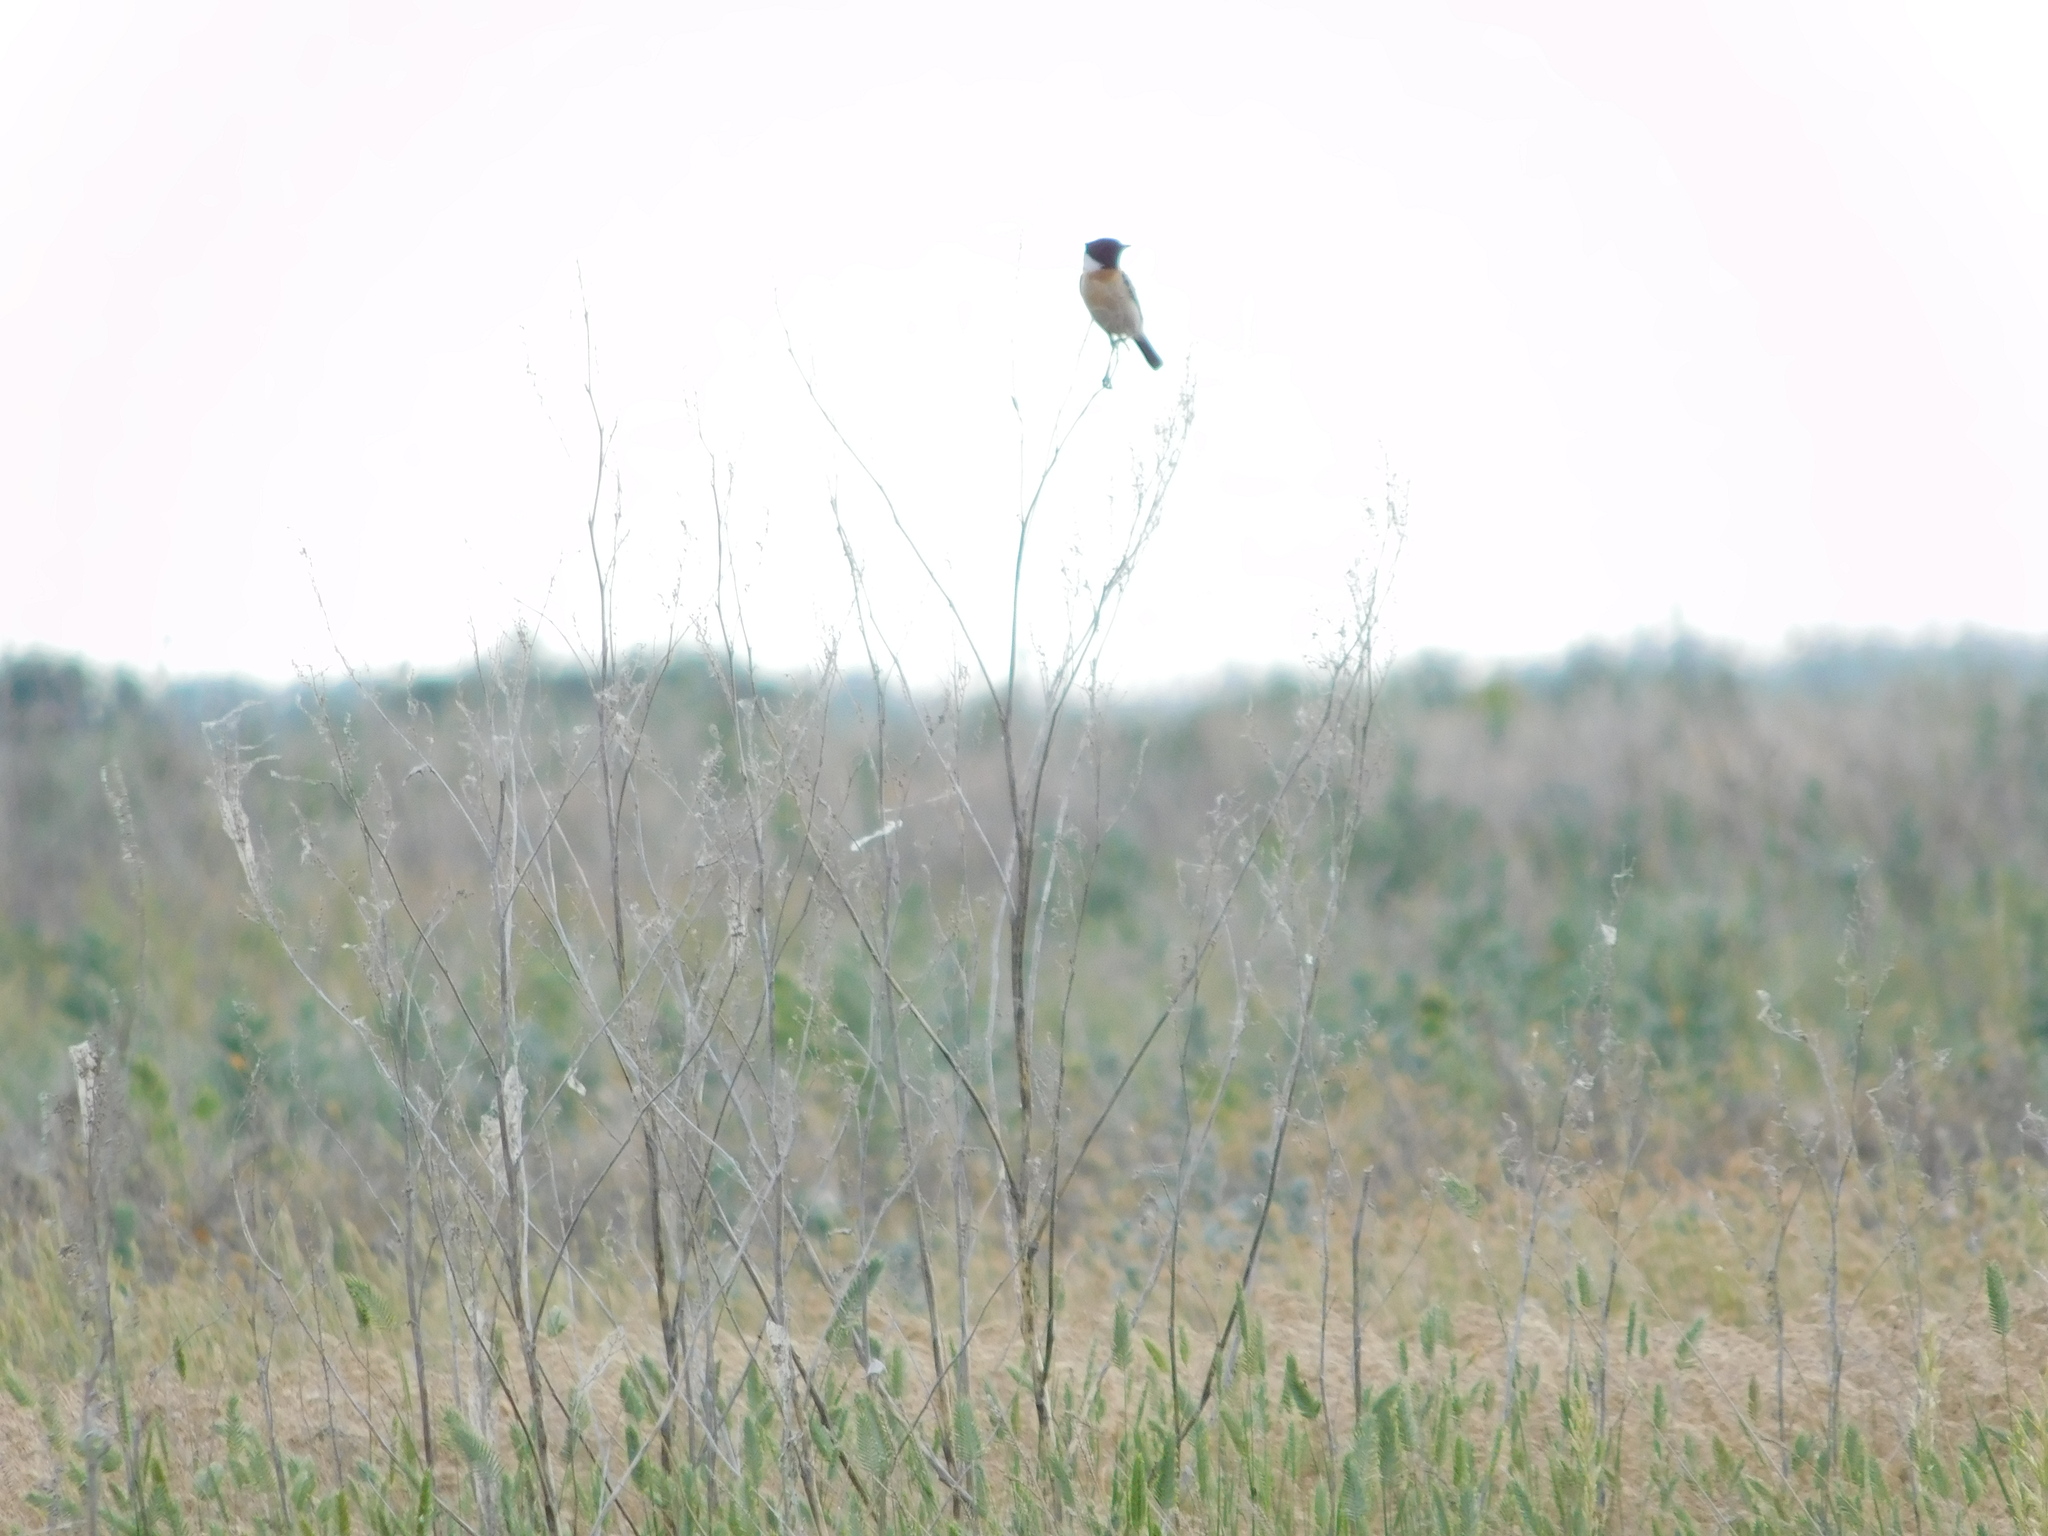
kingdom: Animalia
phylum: Chordata
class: Aves
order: Passeriformes
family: Muscicapidae
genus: Saxicola
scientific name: Saxicola maurus
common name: Siberian stonechat
